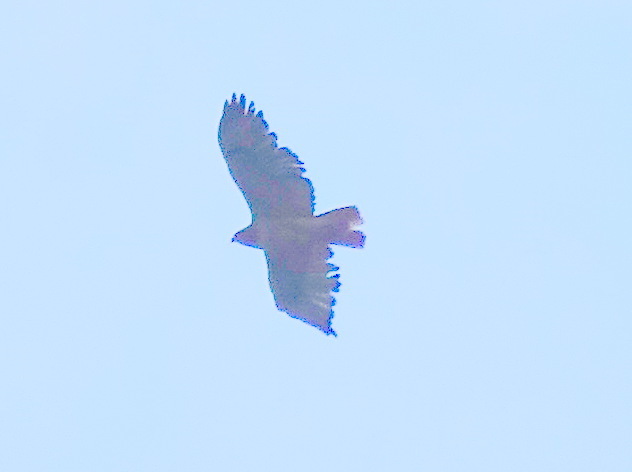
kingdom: Animalia
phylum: Chordata
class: Aves
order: Accipitriformes
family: Accipitridae
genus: Buteo
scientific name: Buteo jamaicensis
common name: Red-tailed hawk
